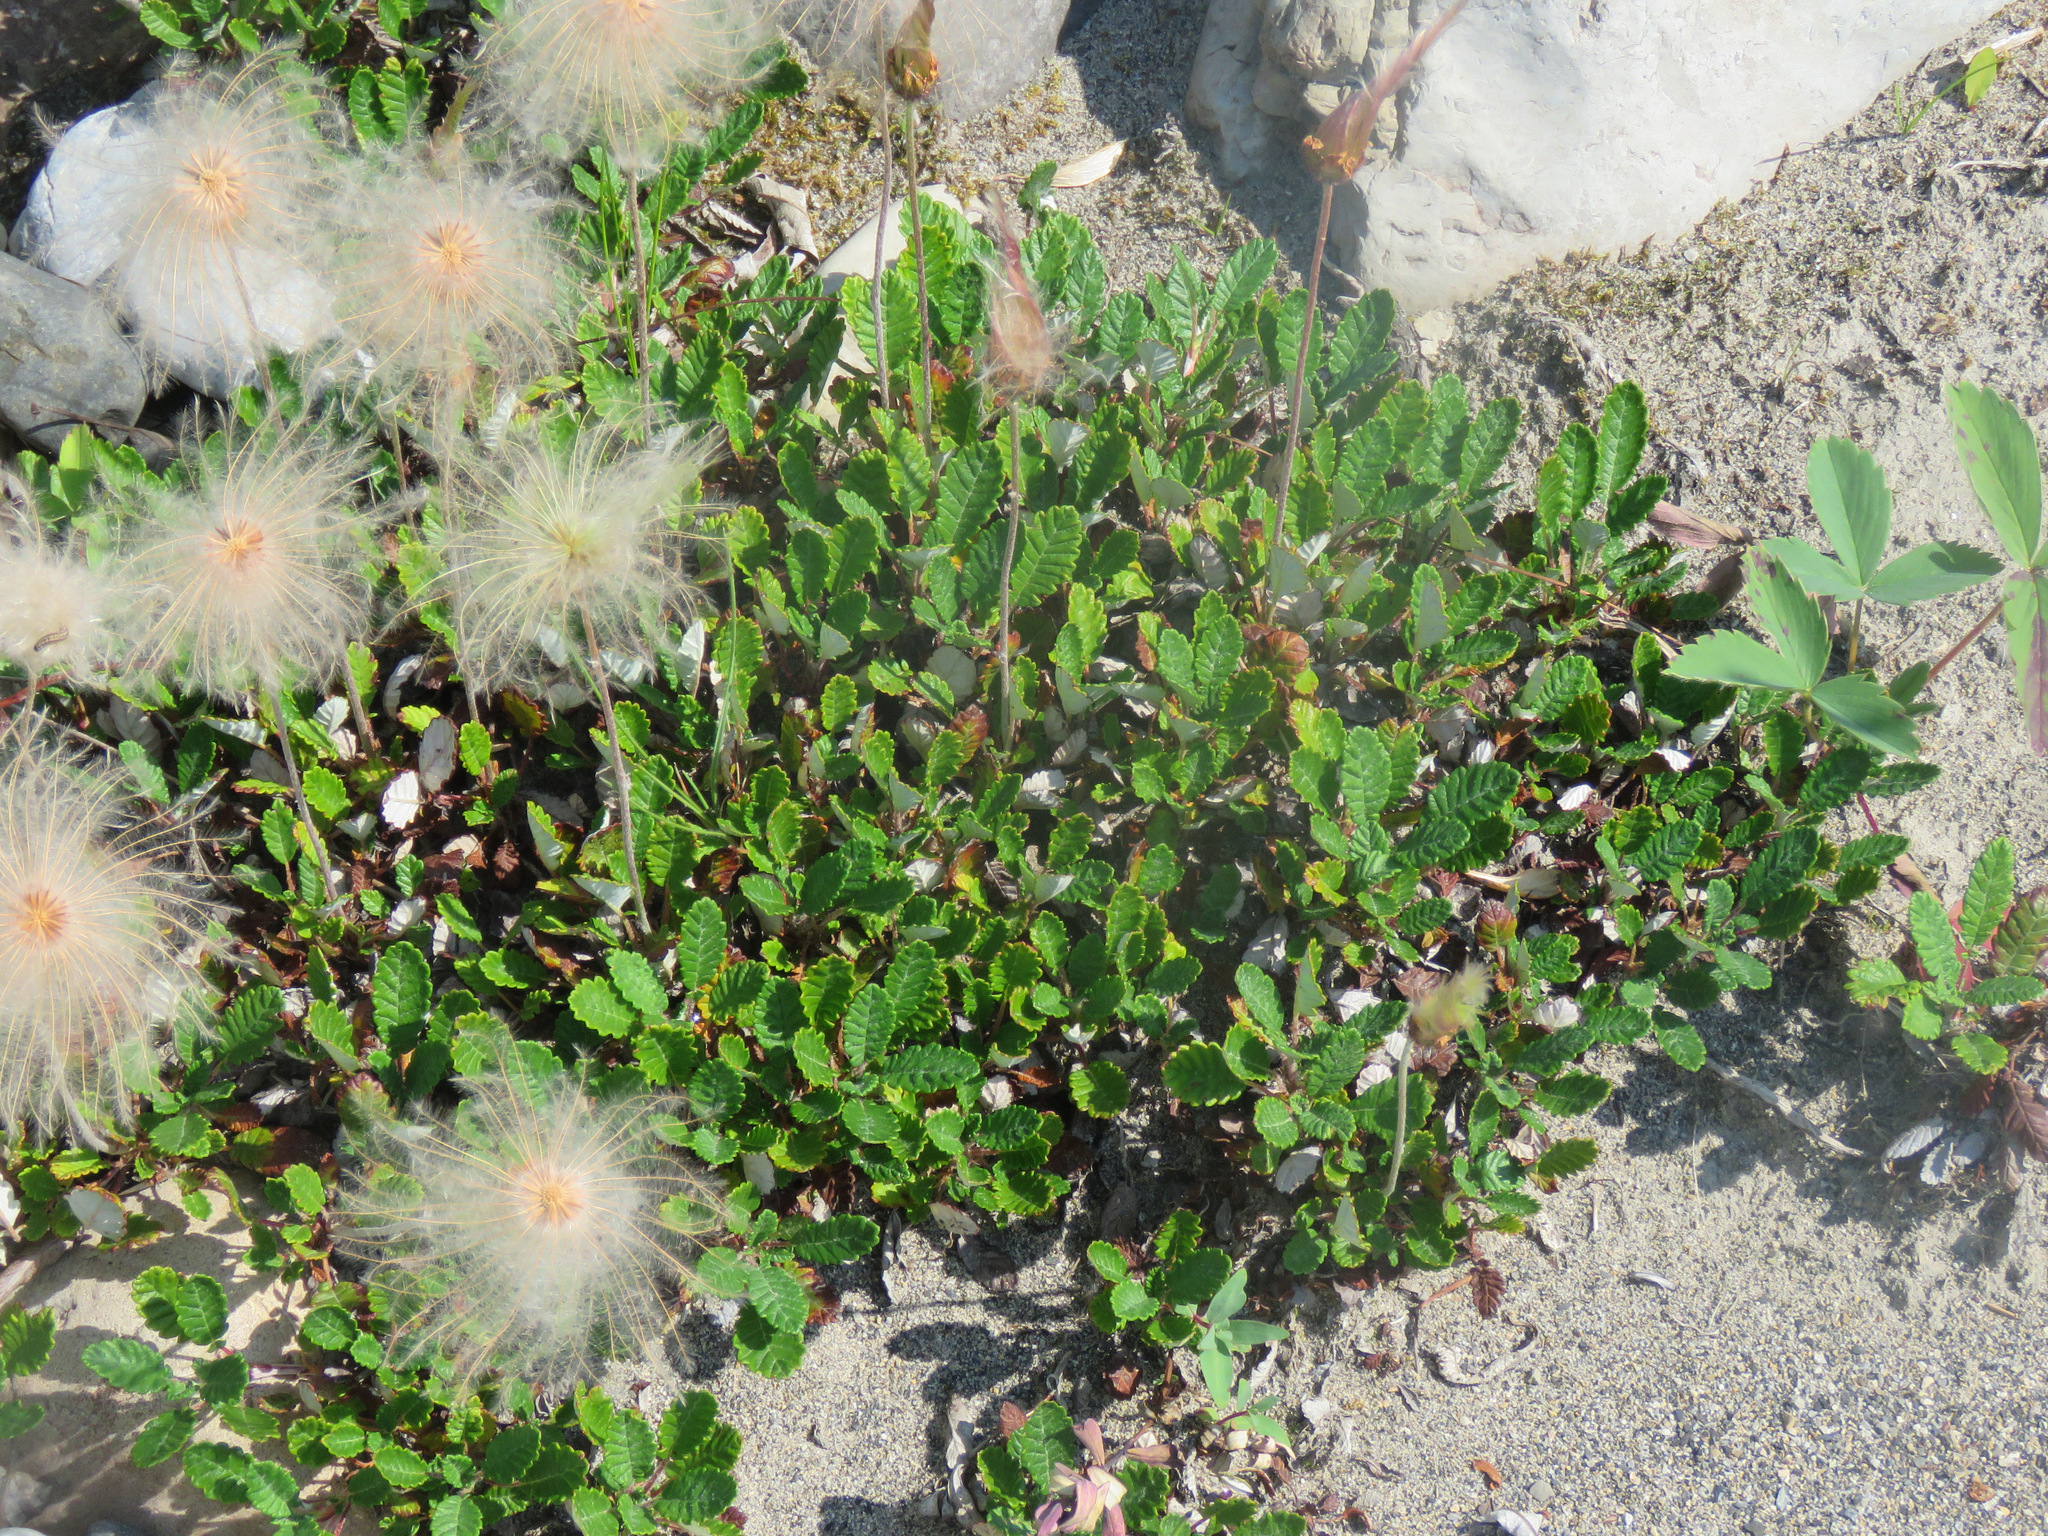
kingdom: Plantae
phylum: Tracheophyta
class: Magnoliopsida
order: Rosales
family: Rosaceae
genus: Dryas
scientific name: Dryas drummondii
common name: Drummond's dryad
